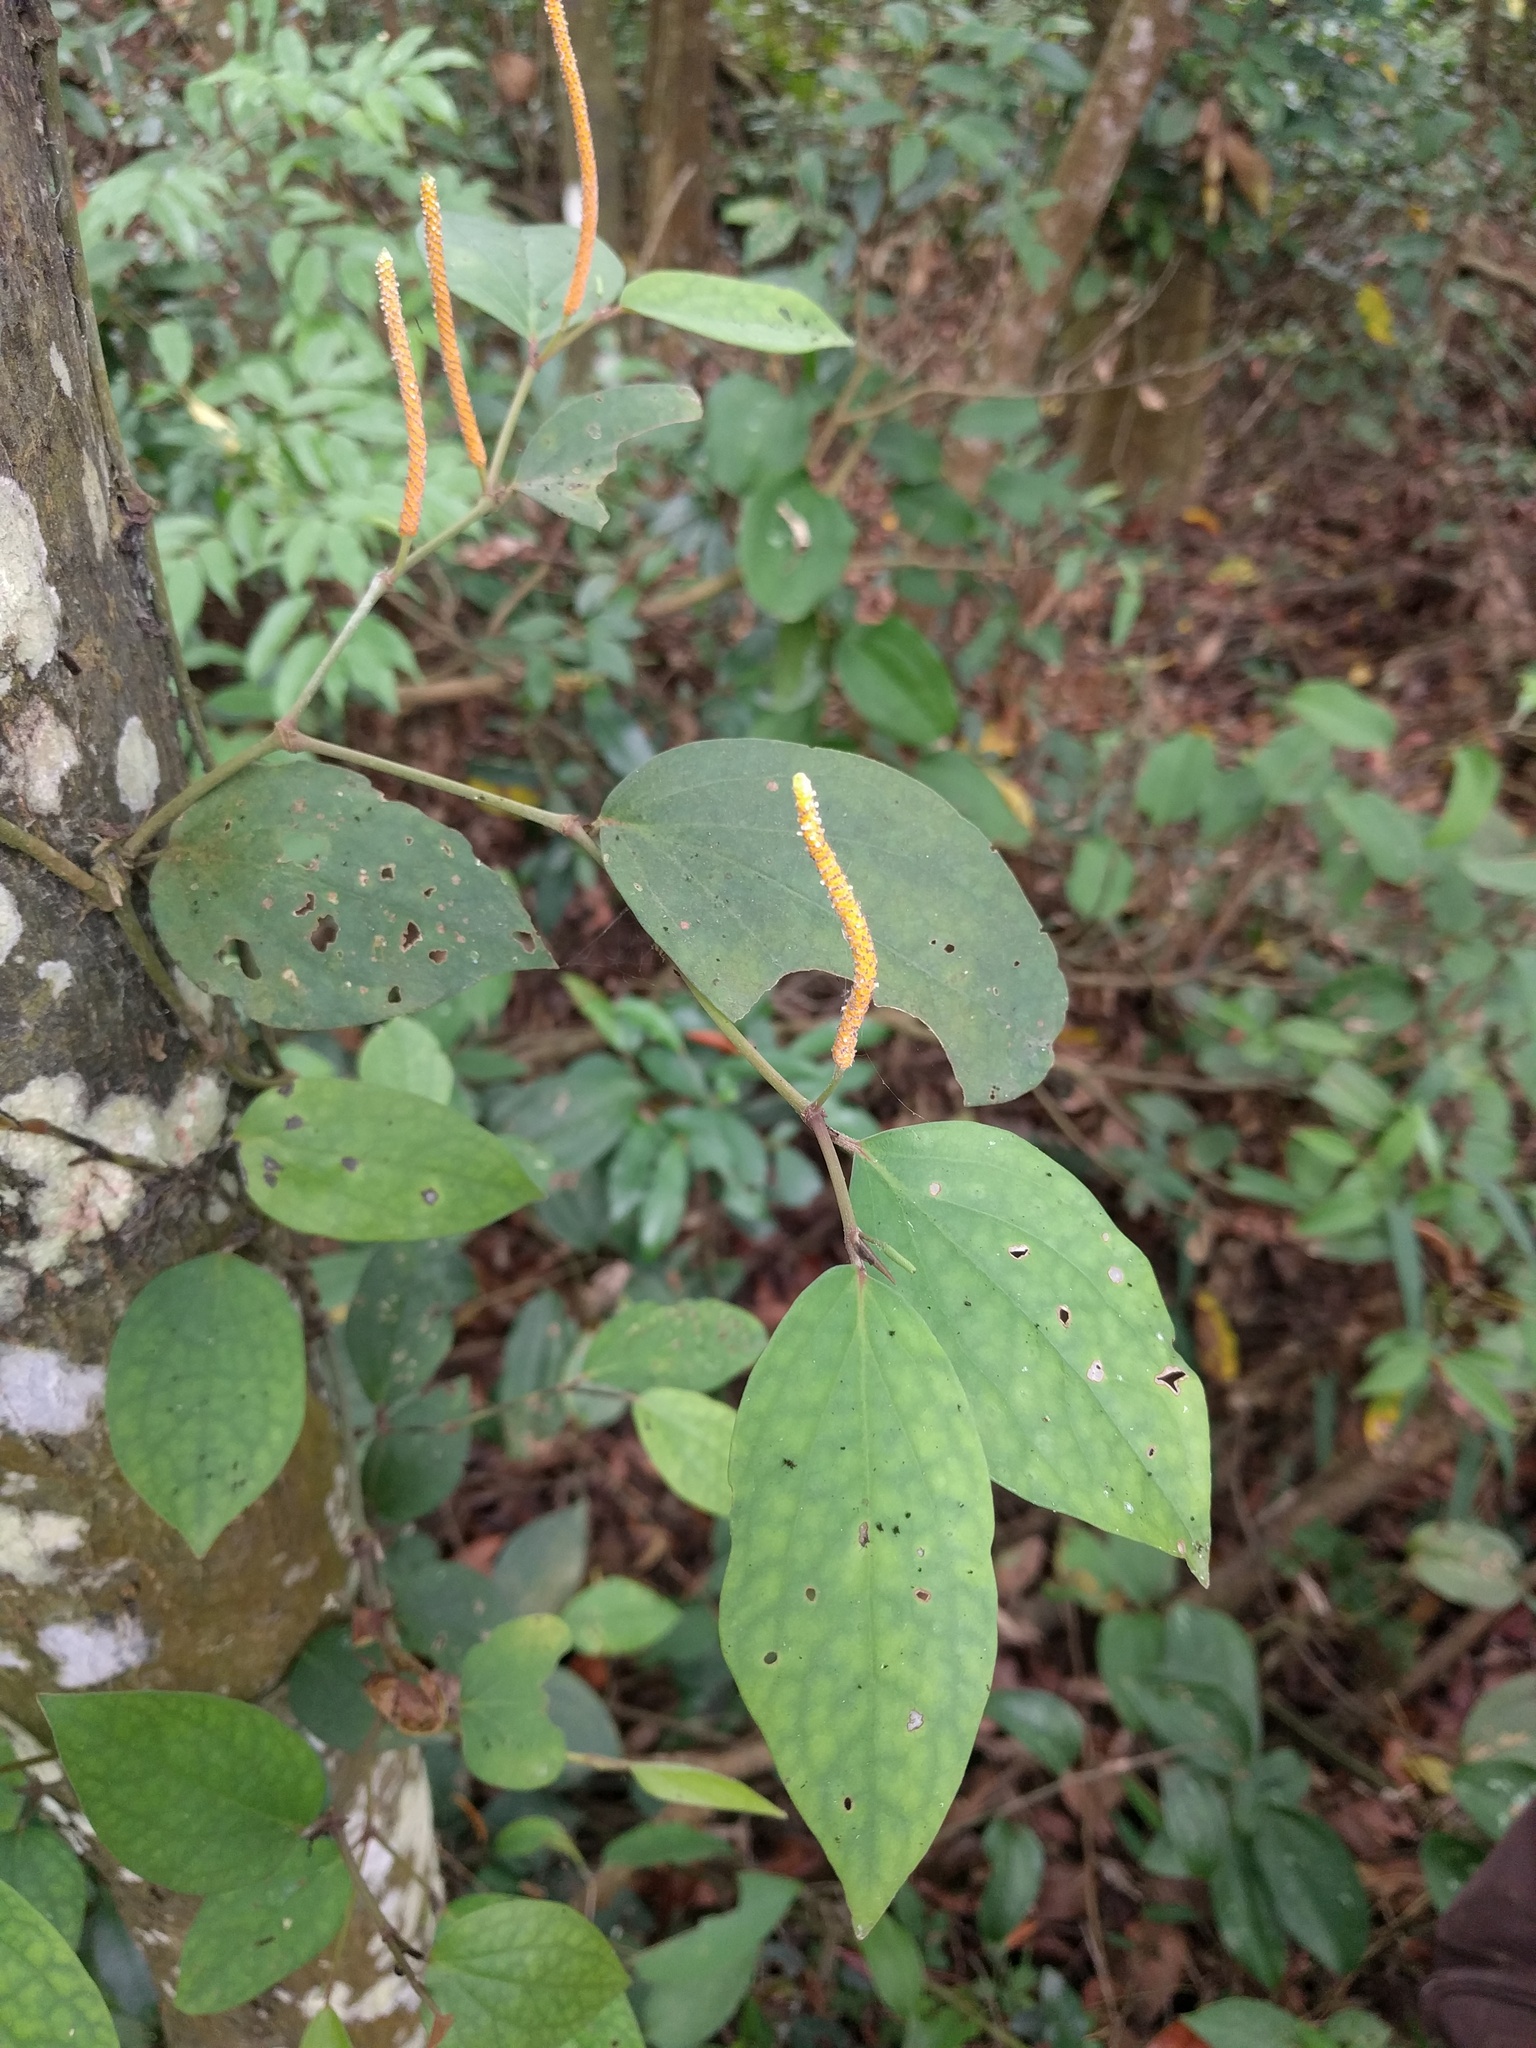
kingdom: Plantae
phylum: Tracheophyta
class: Magnoliopsida
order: Piperales
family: Piperaceae
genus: Piper
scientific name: Piper kadsura
